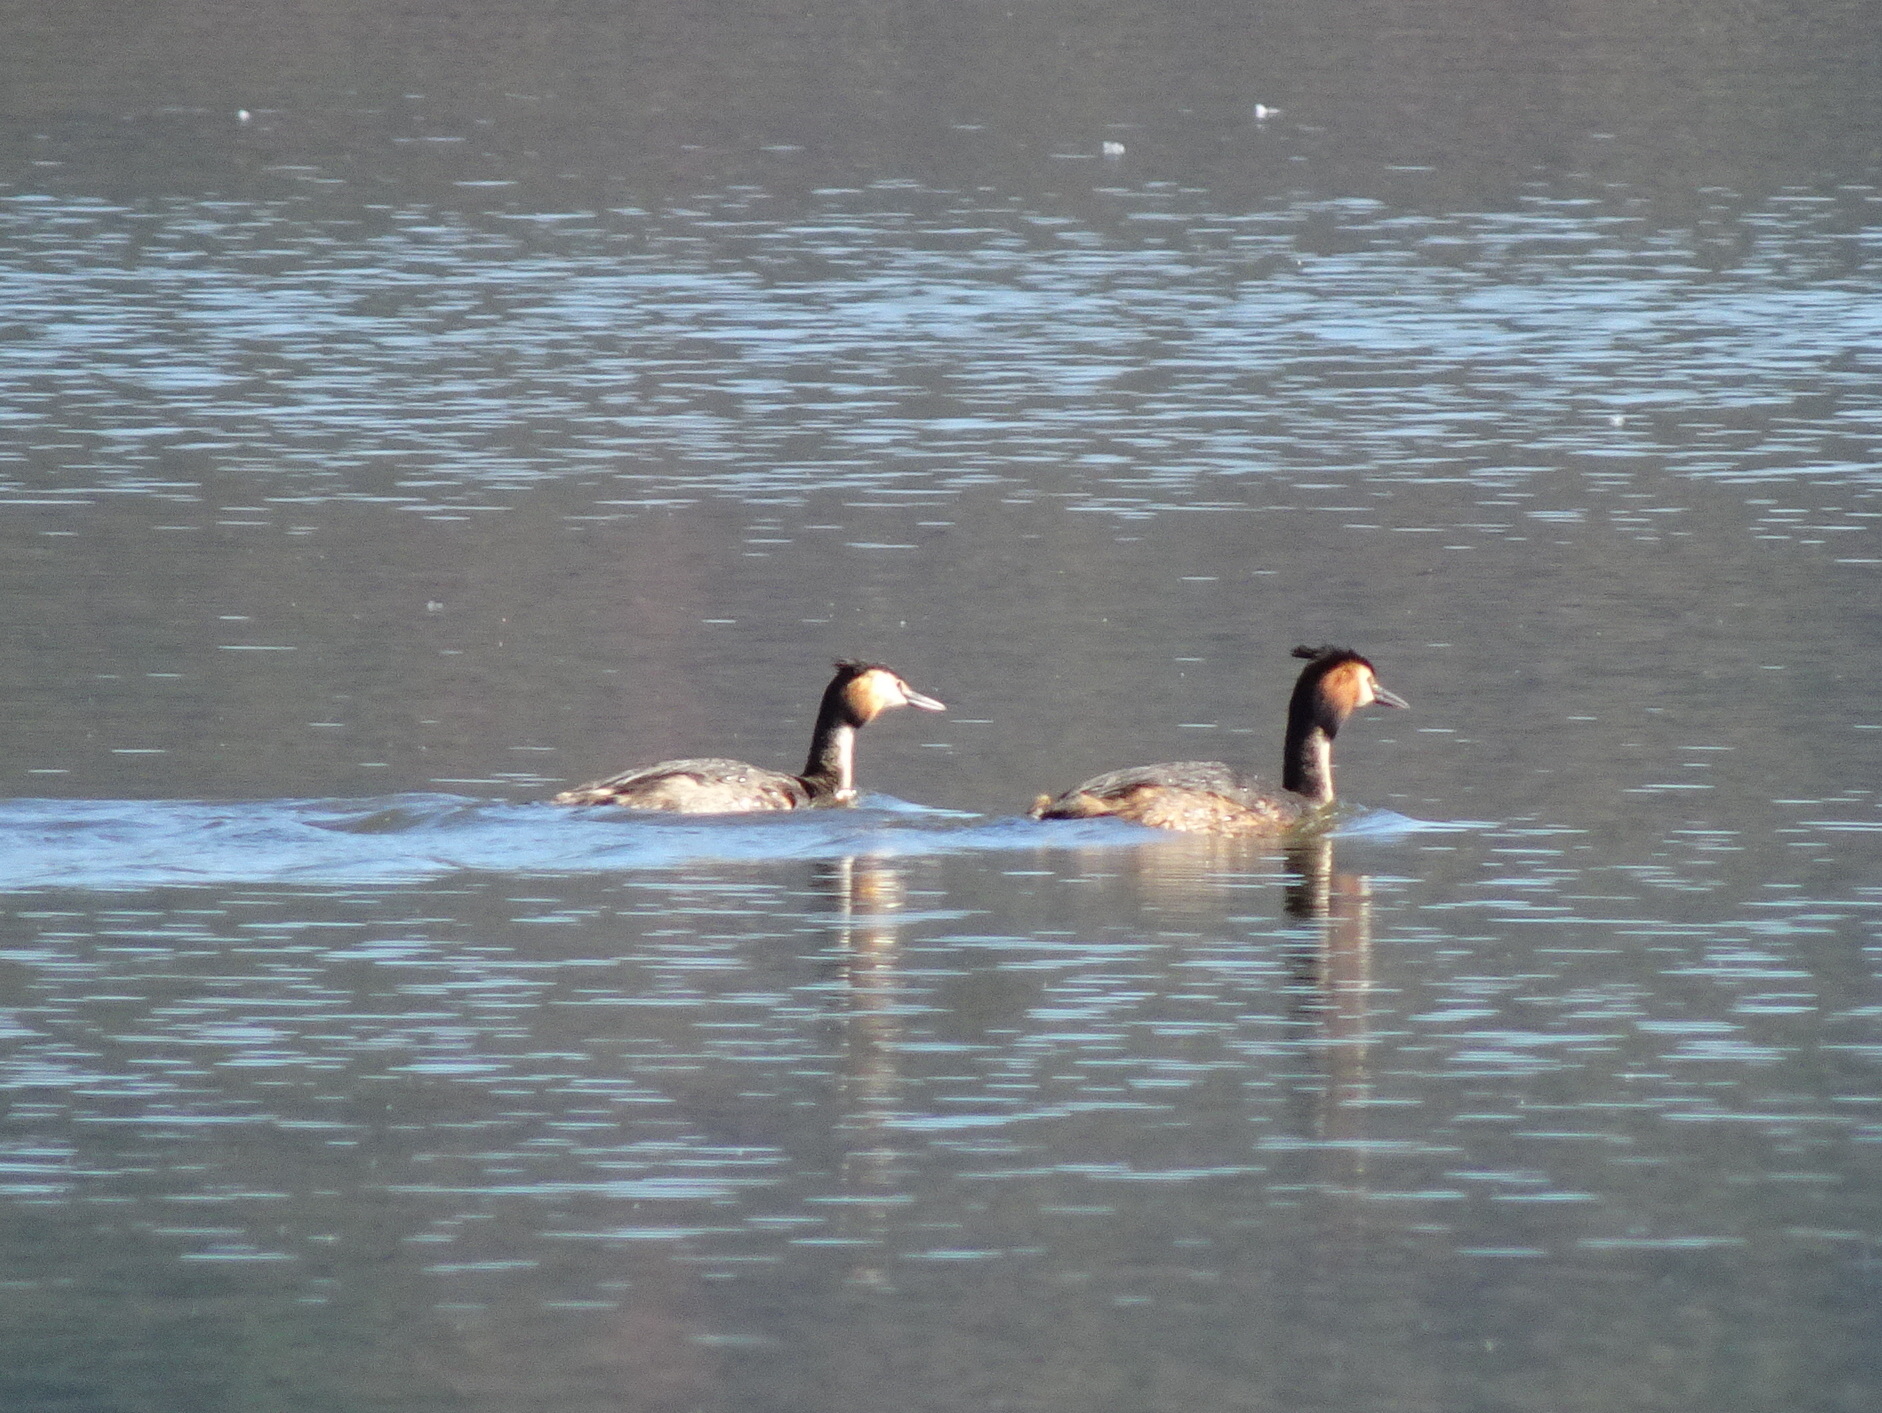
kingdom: Animalia
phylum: Chordata
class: Aves
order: Podicipediformes
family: Podicipedidae
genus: Podiceps
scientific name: Podiceps cristatus
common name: Great crested grebe
